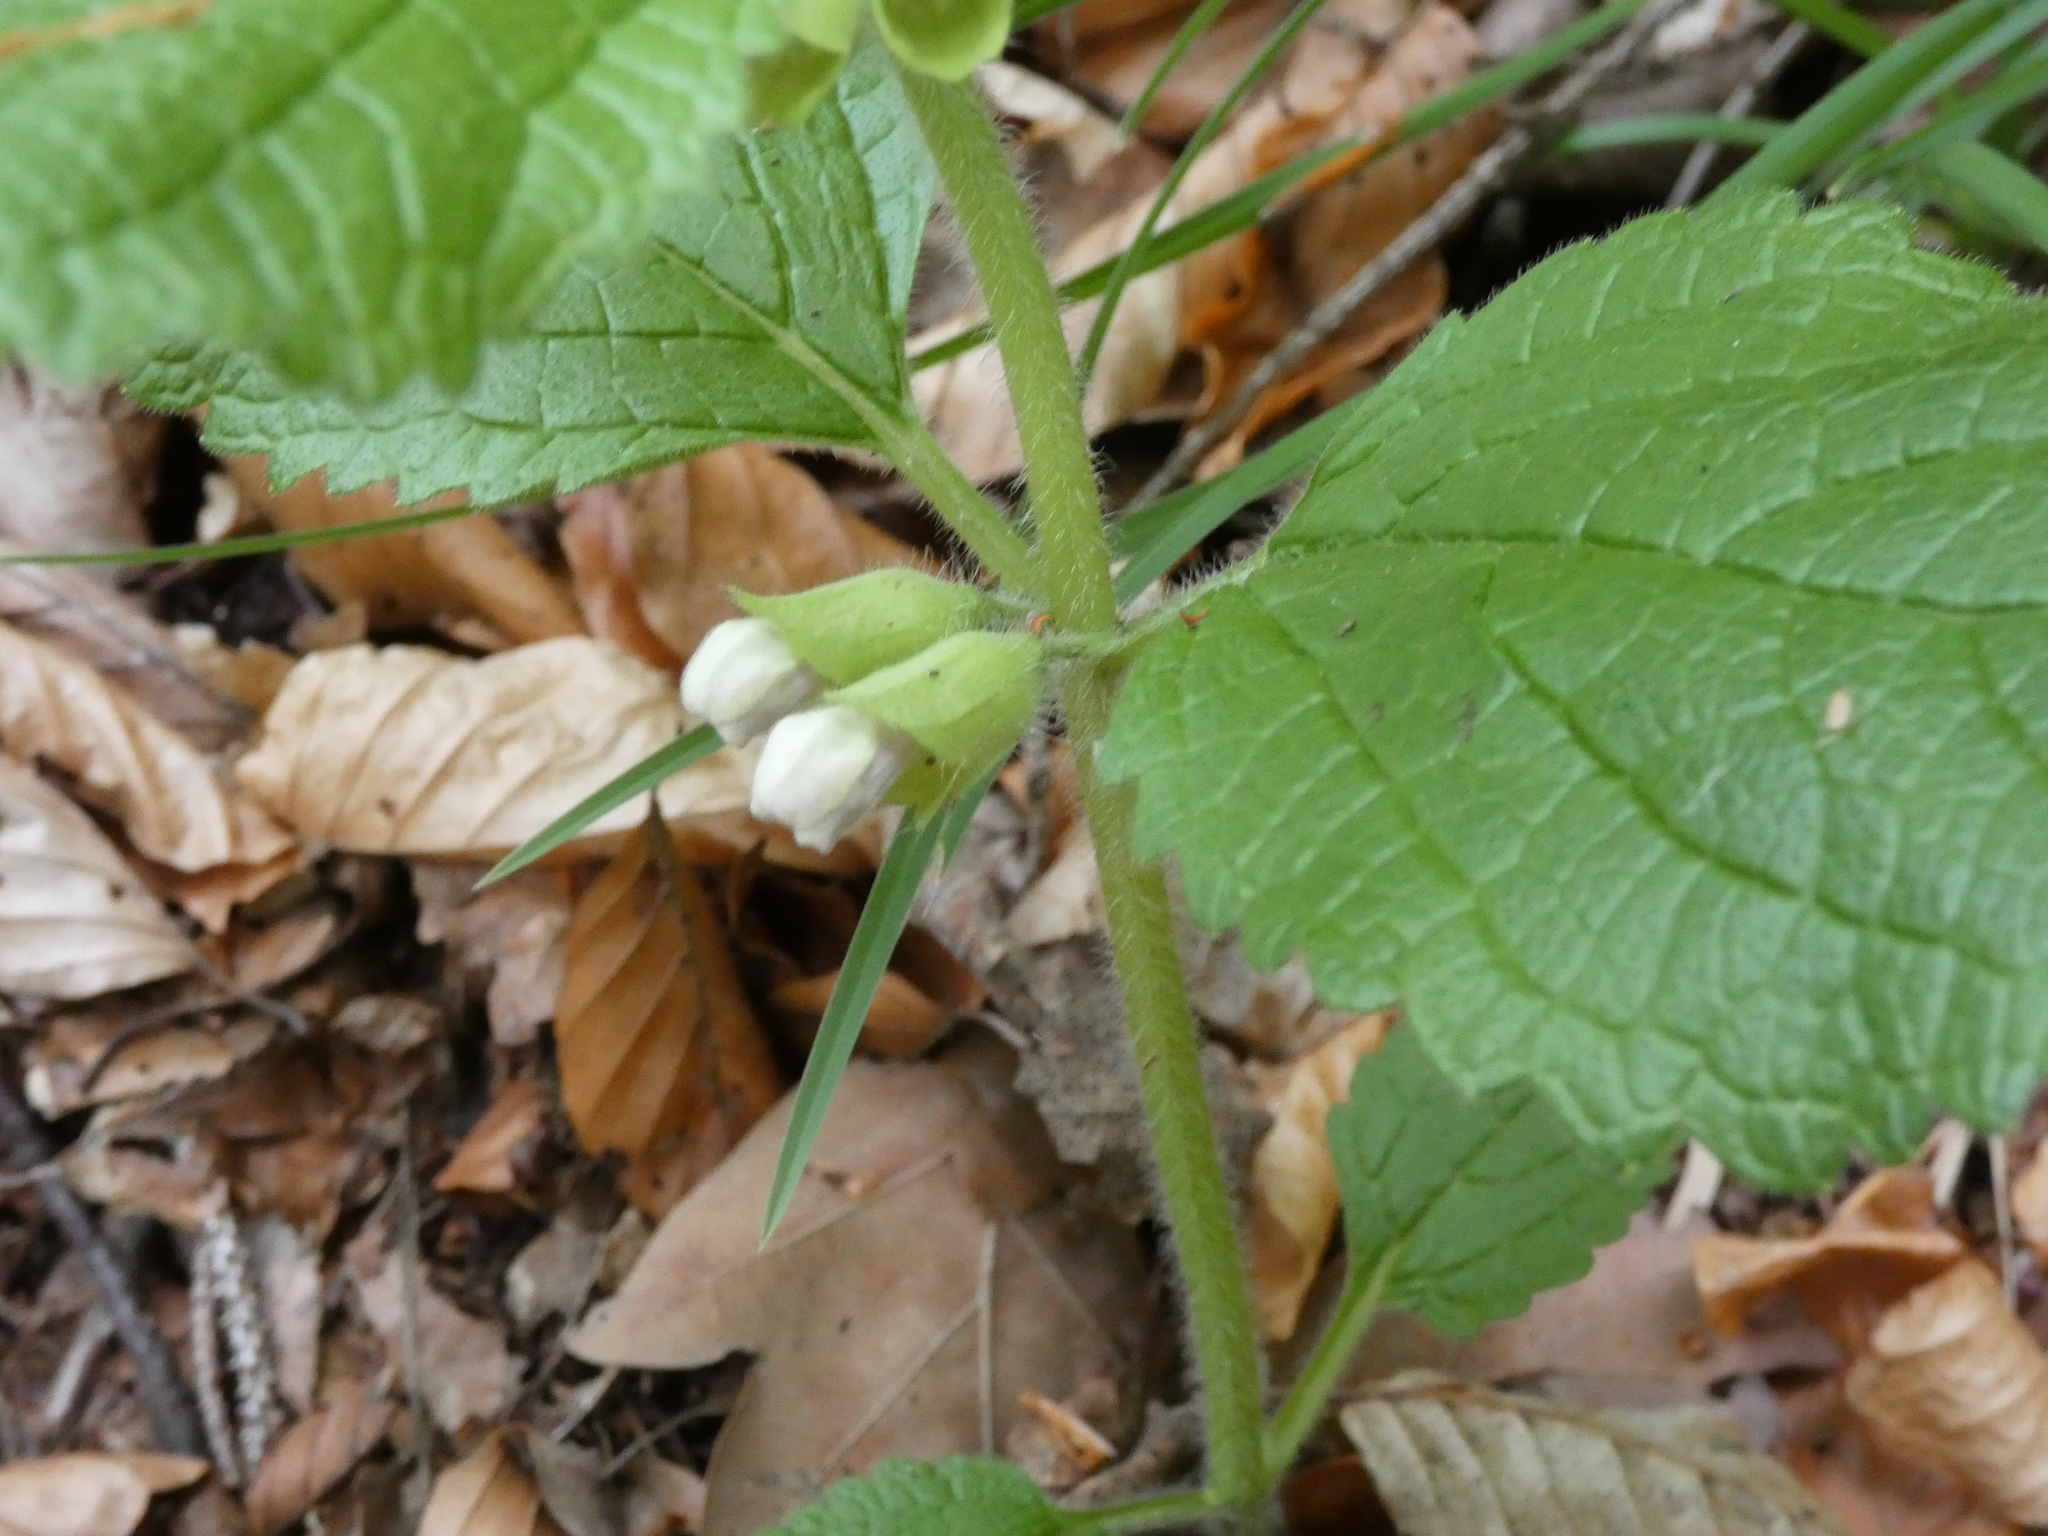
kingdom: Plantae
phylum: Tracheophyta
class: Magnoliopsida
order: Lamiales
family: Lamiaceae
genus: Melittis
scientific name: Melittis melissophyllum
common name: Bastard balm
